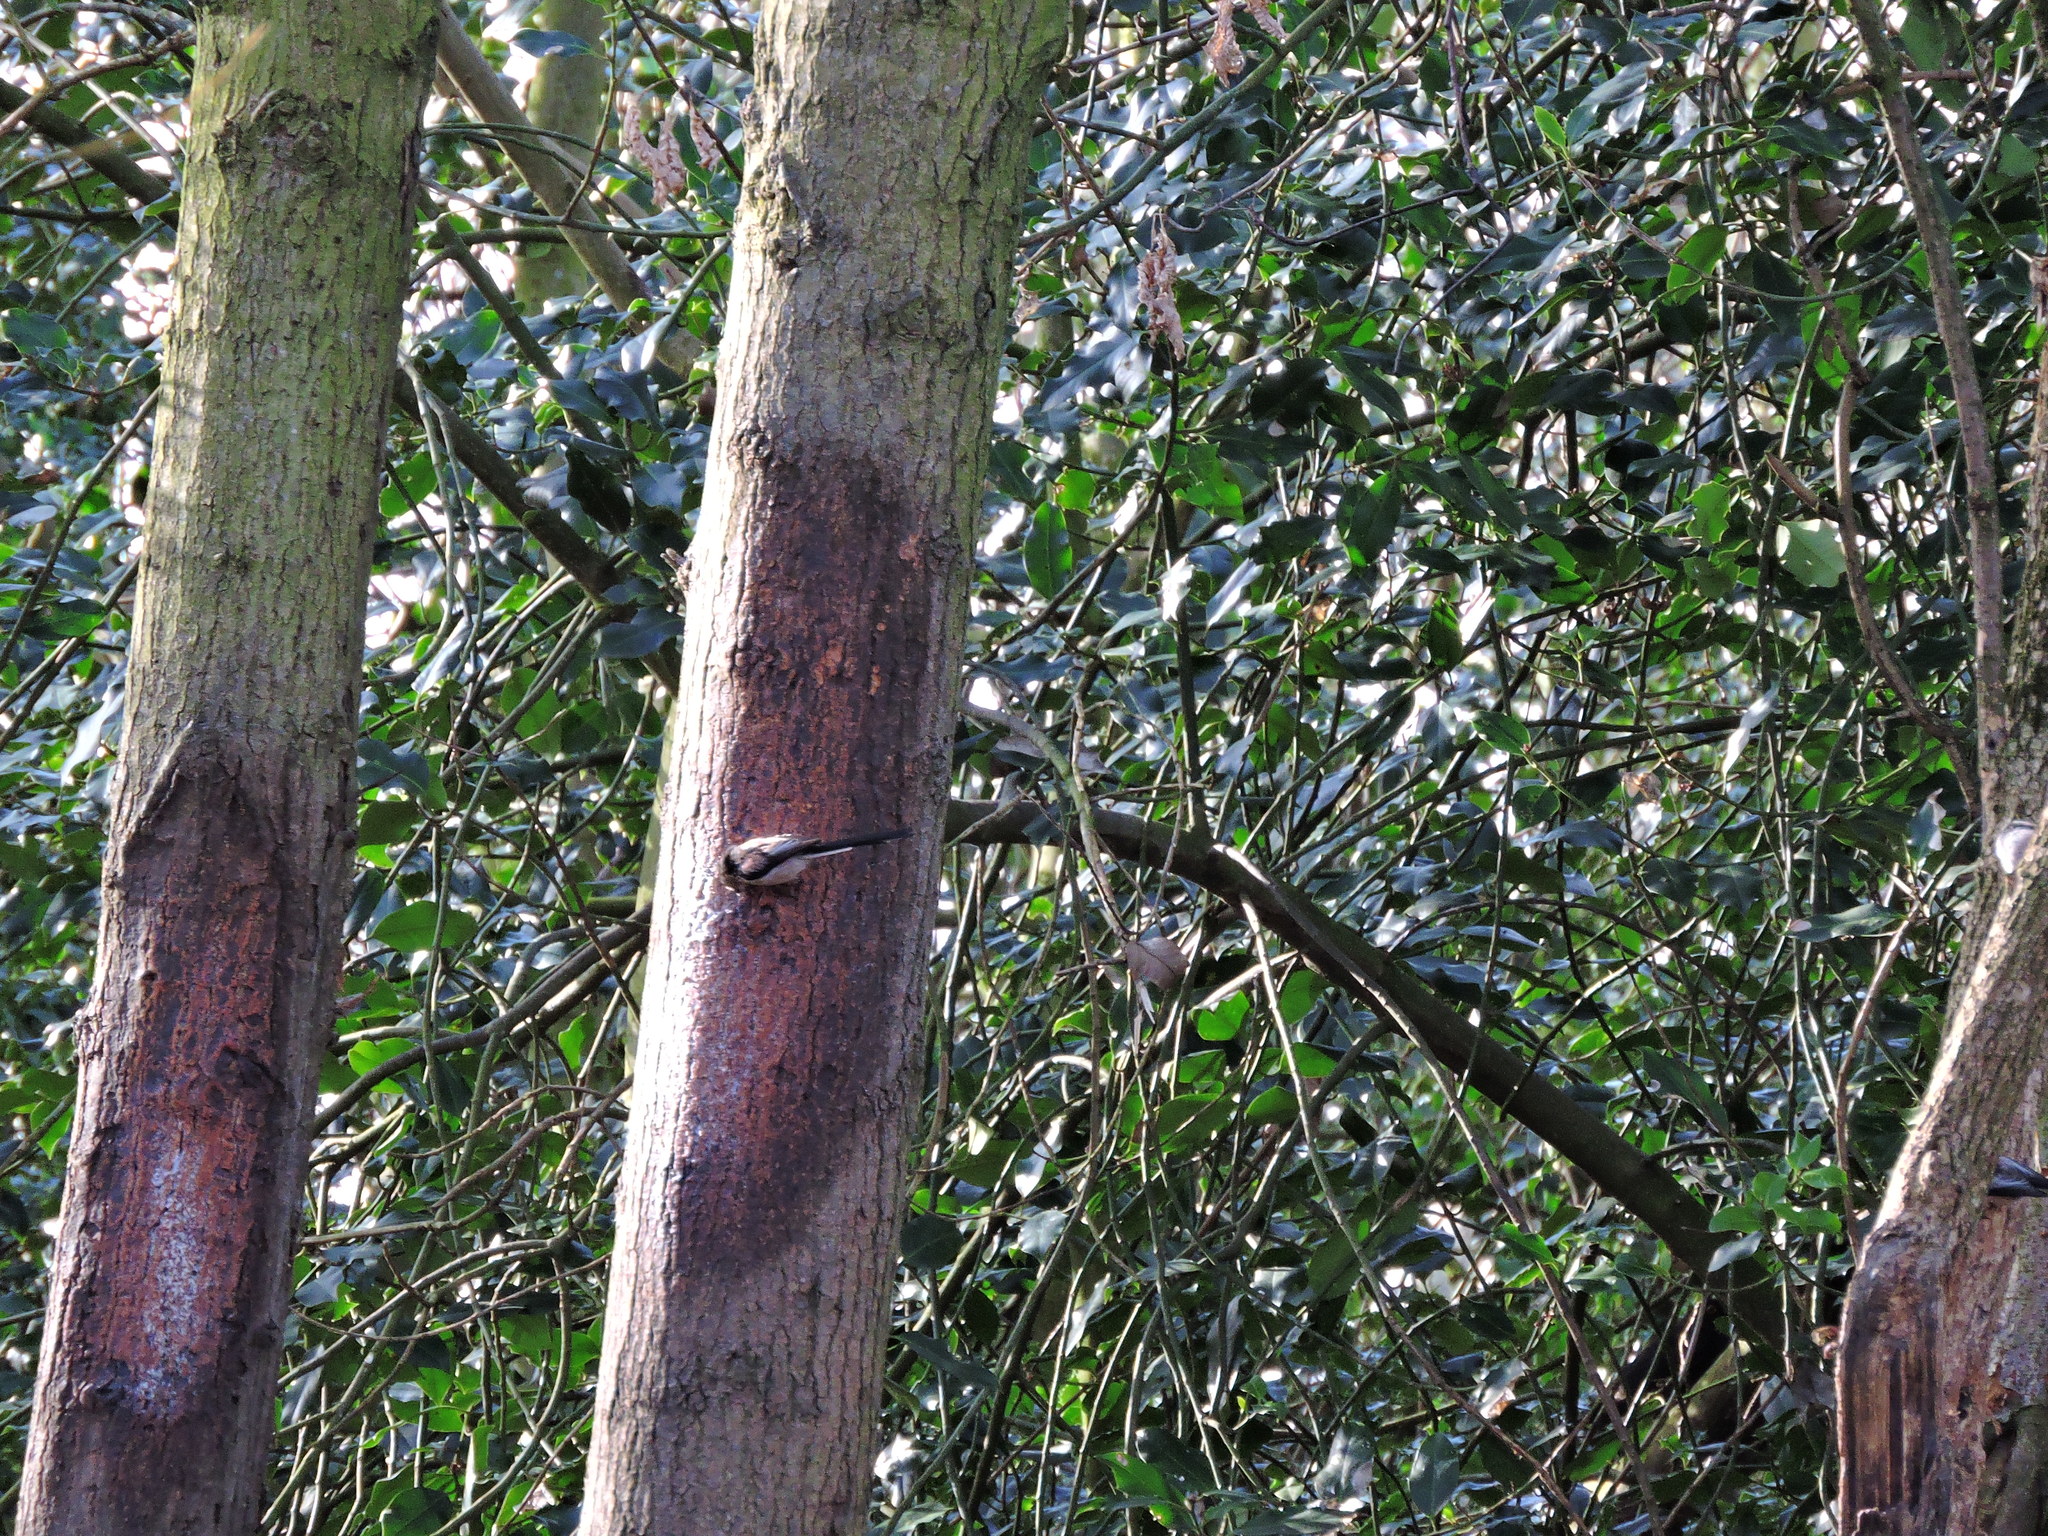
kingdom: Animalia
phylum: Chordata
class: Aves
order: Passeriformes
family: Aegithalidae
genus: Aegithalos
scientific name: Aegithalos caudatus
